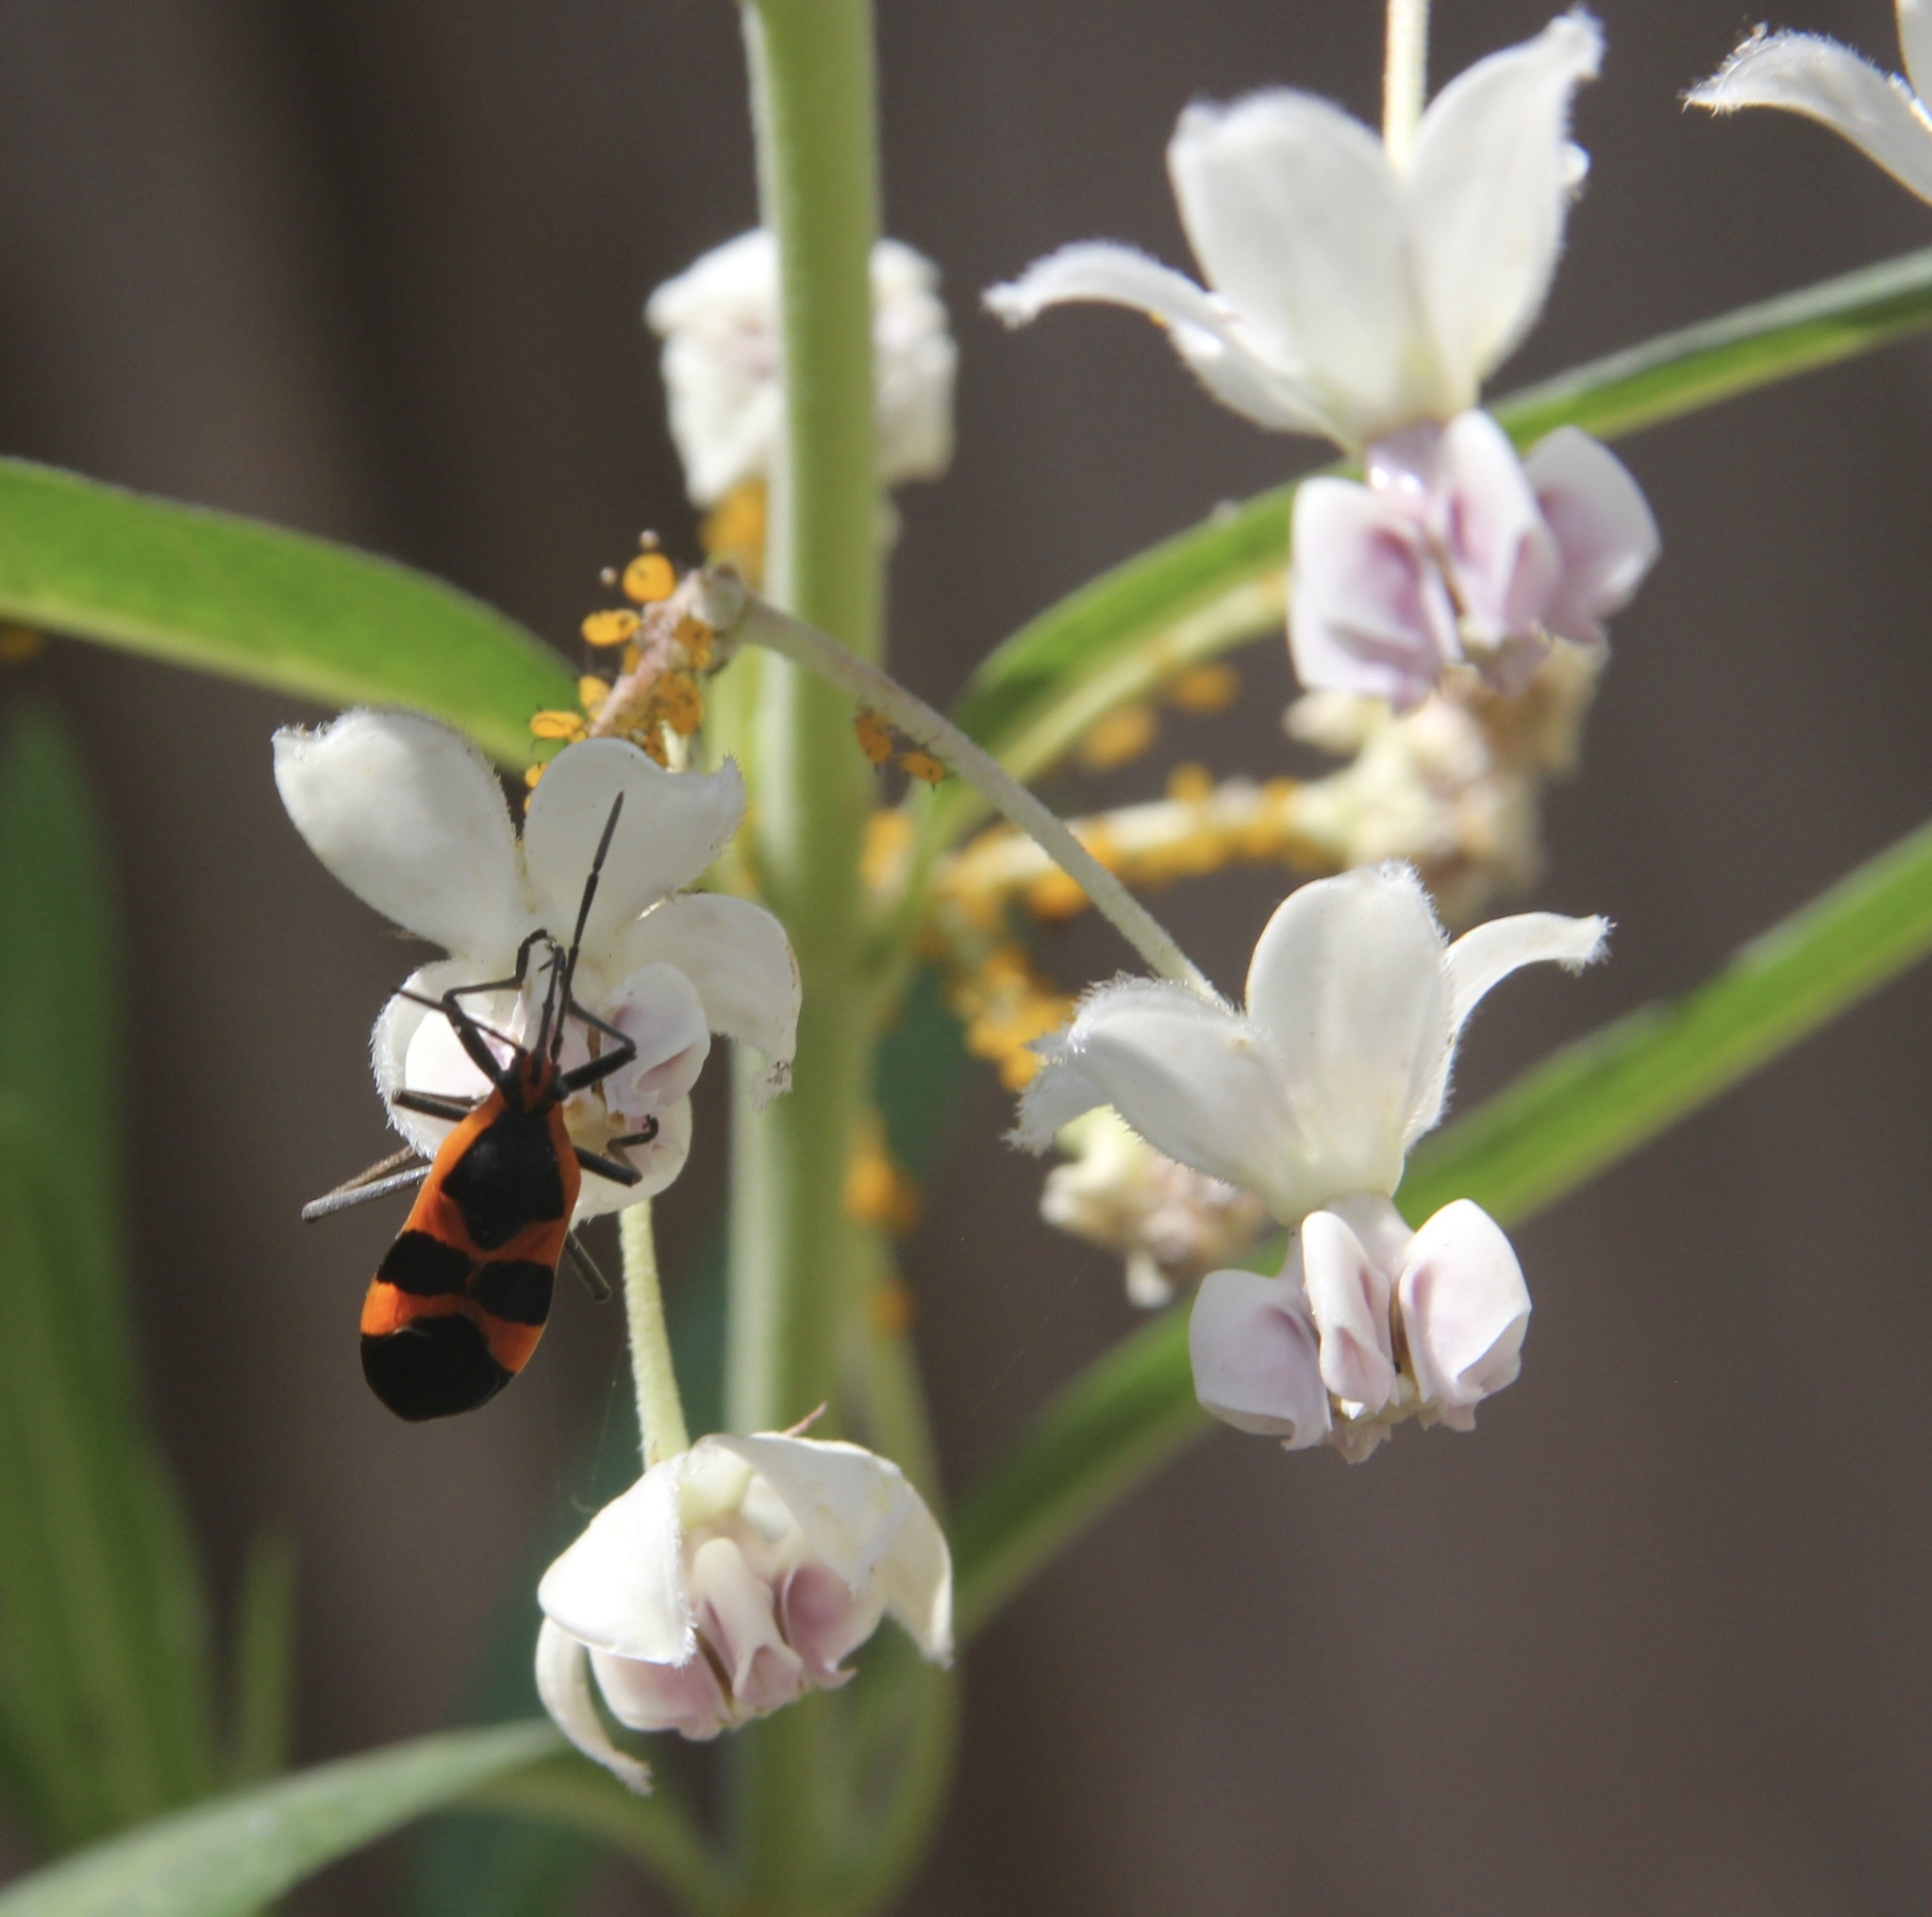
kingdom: Animalia
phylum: Arthropoda
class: Insecta
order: Hemiptera
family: Lygaeidae
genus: Oncopeltus
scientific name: Oncopeltus fasciatus
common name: Large milkweed bug
